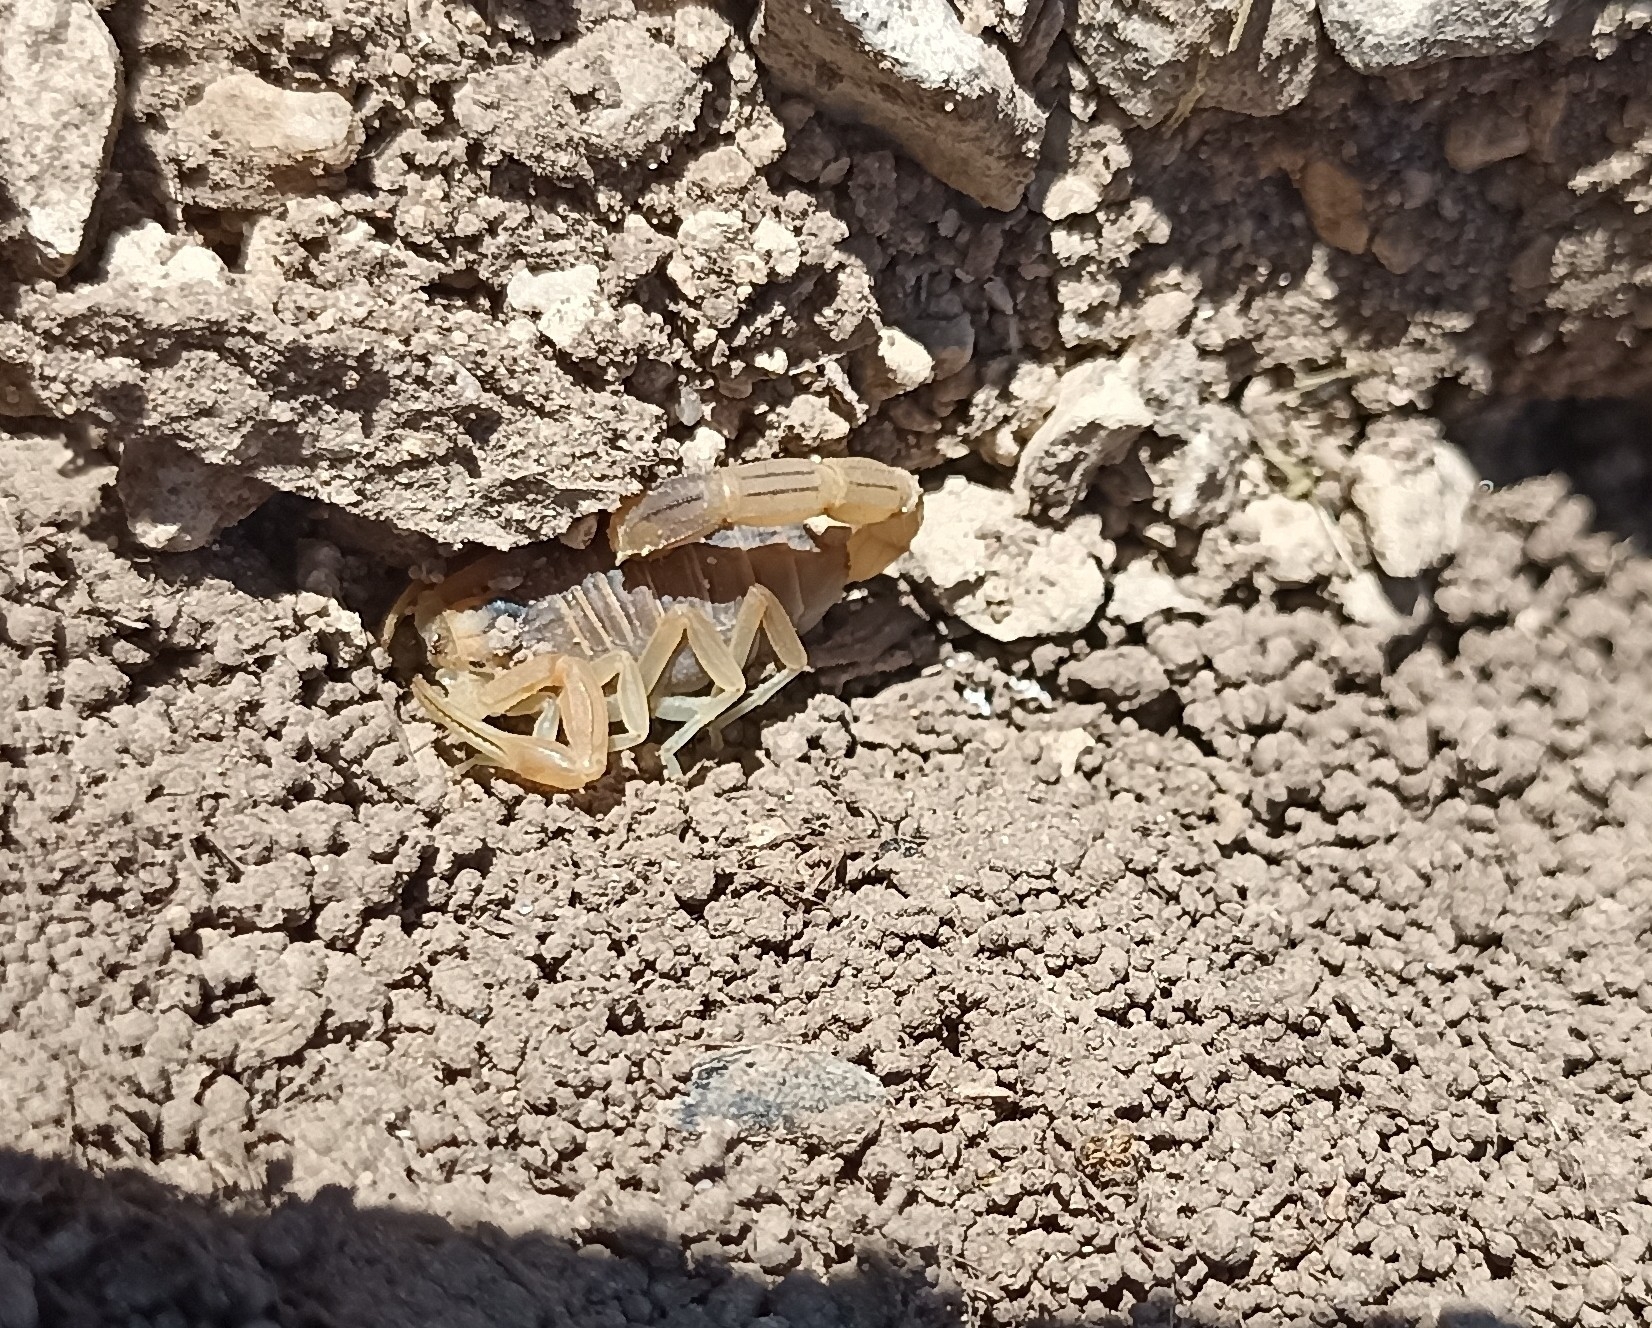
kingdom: Animalia
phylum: Arthropoda
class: Arachnida
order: Scorpiones
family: Buthidae
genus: Buthus
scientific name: Buthus occitanus
